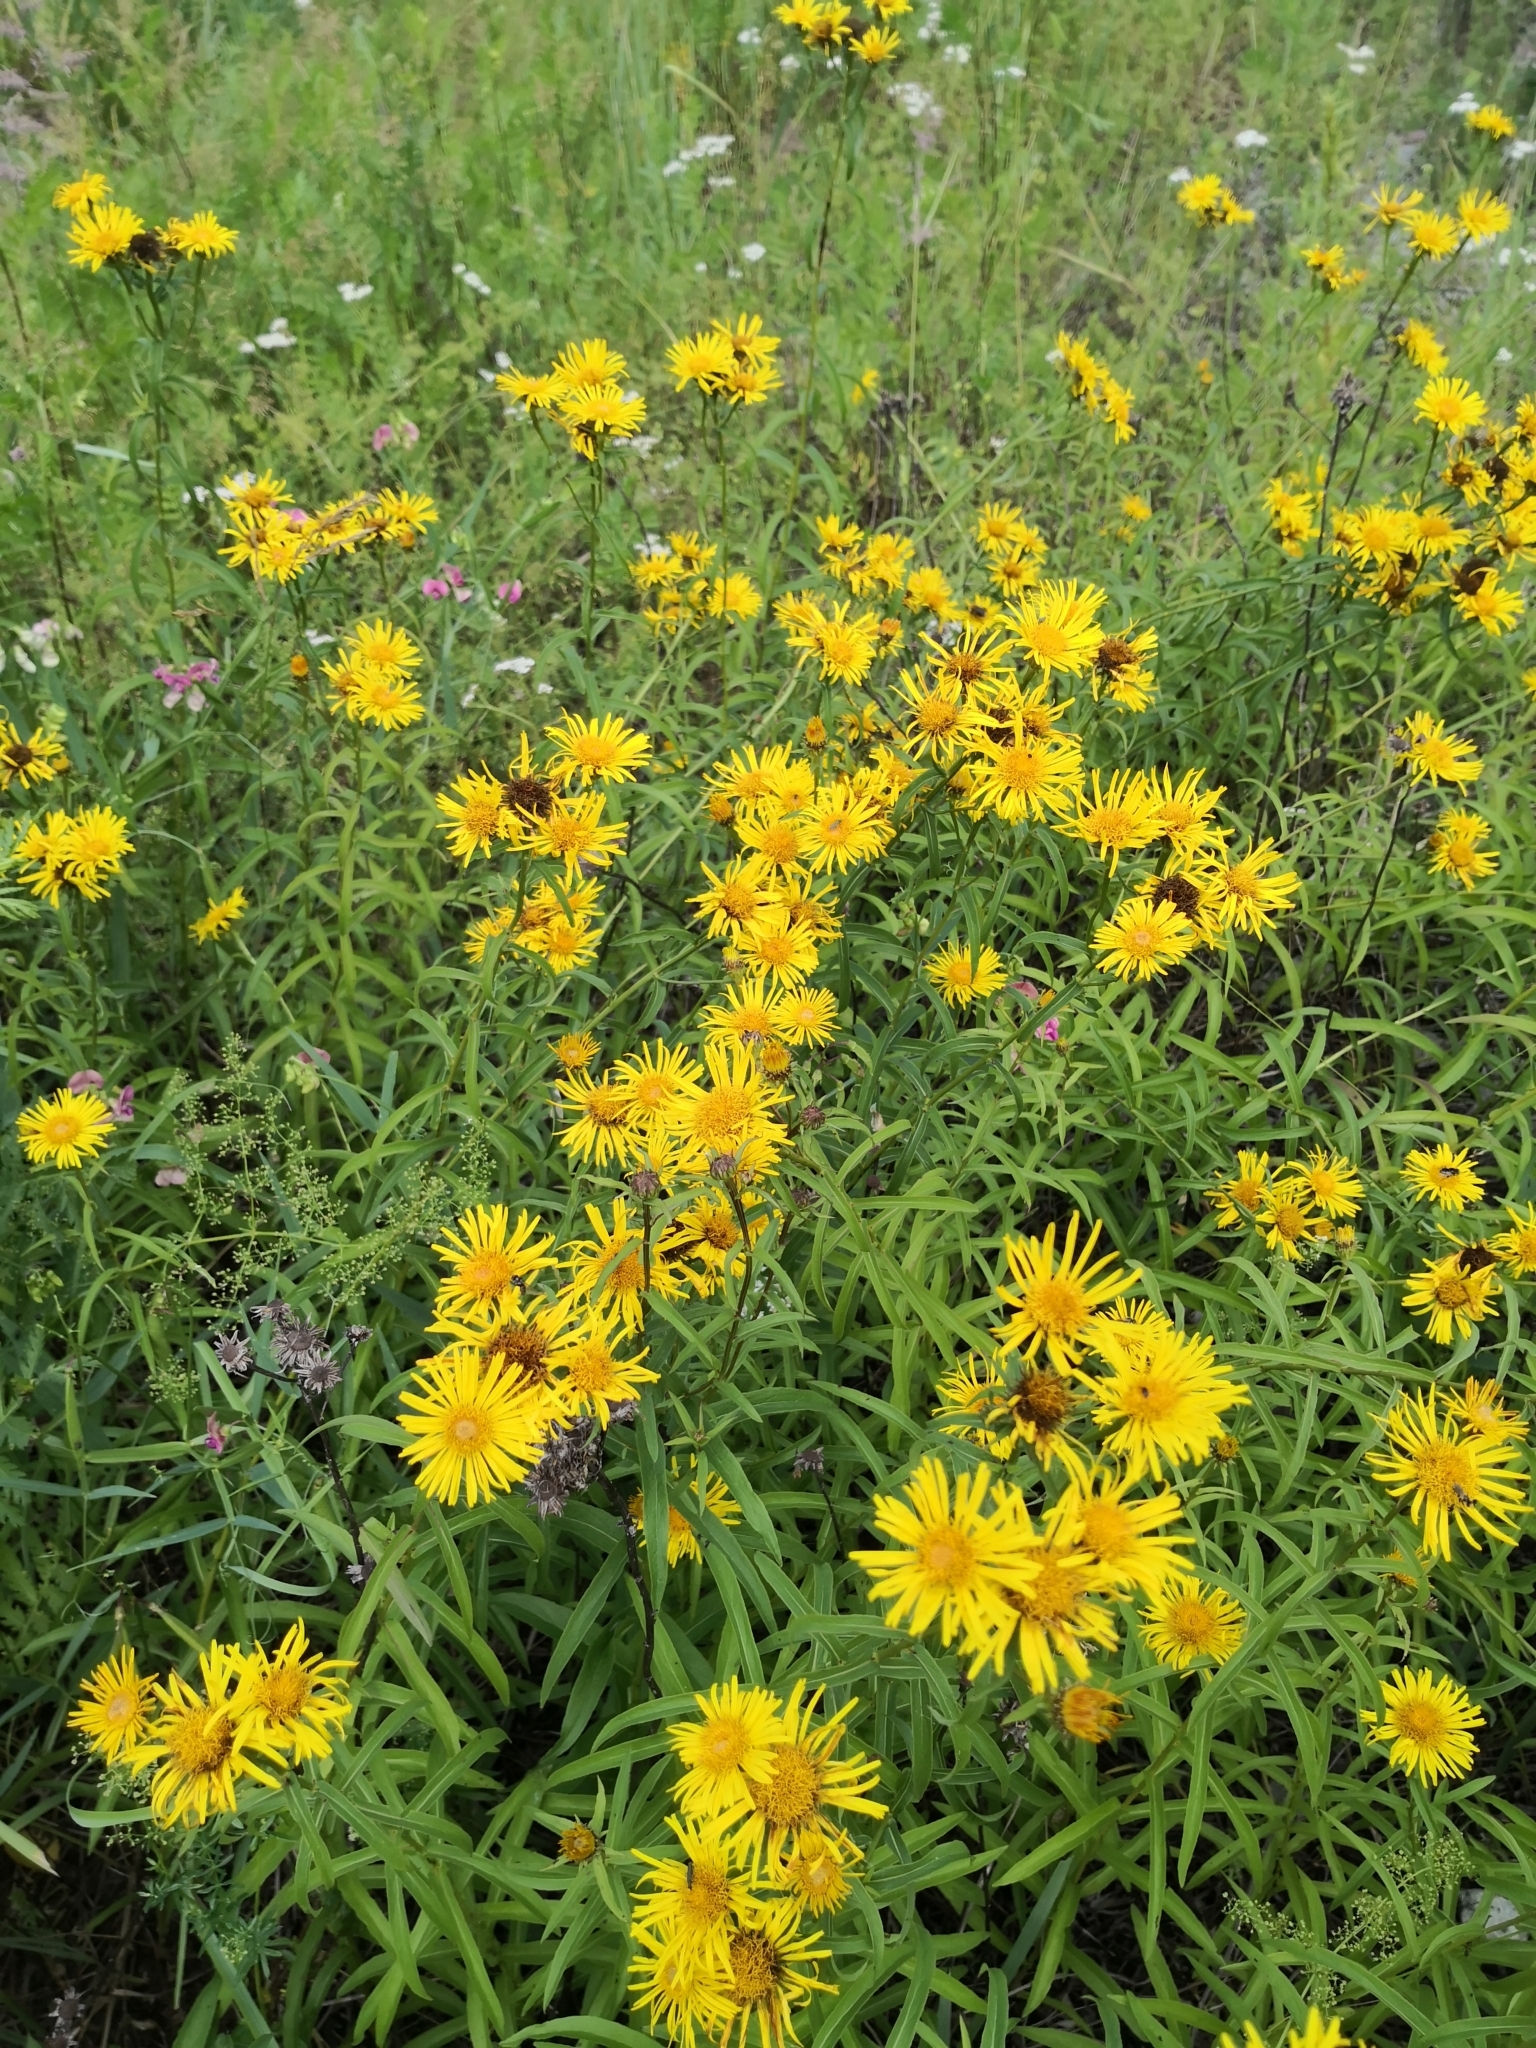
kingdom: Plantae
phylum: Tracheophyta
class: Magnoliopsida
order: Asterales
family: Asteraceae
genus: Pentanema
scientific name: Pentanema salicinum
